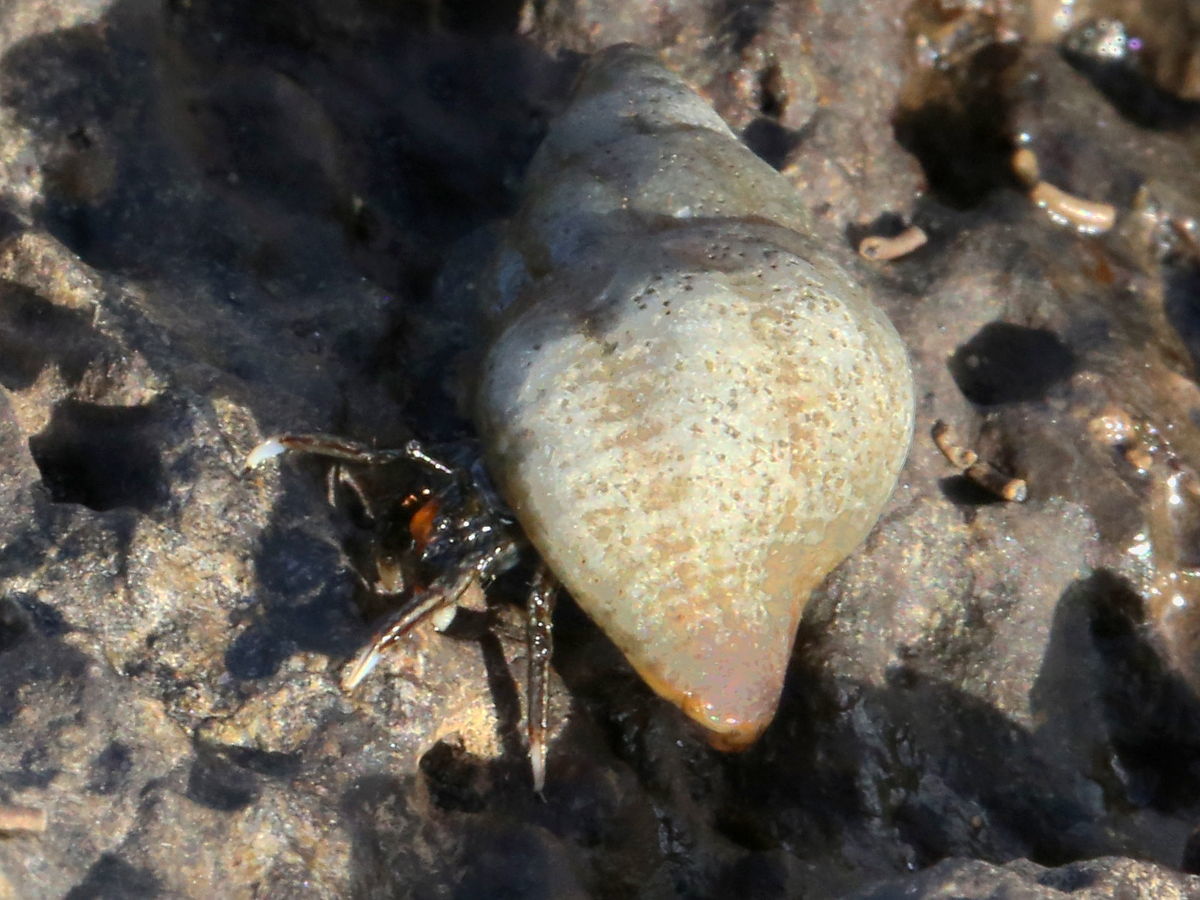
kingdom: Animalia
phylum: Arthropoda
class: Malacostraca
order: Decapoda
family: Diogenidae
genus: Clibanarius
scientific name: Clibanarius zebra
